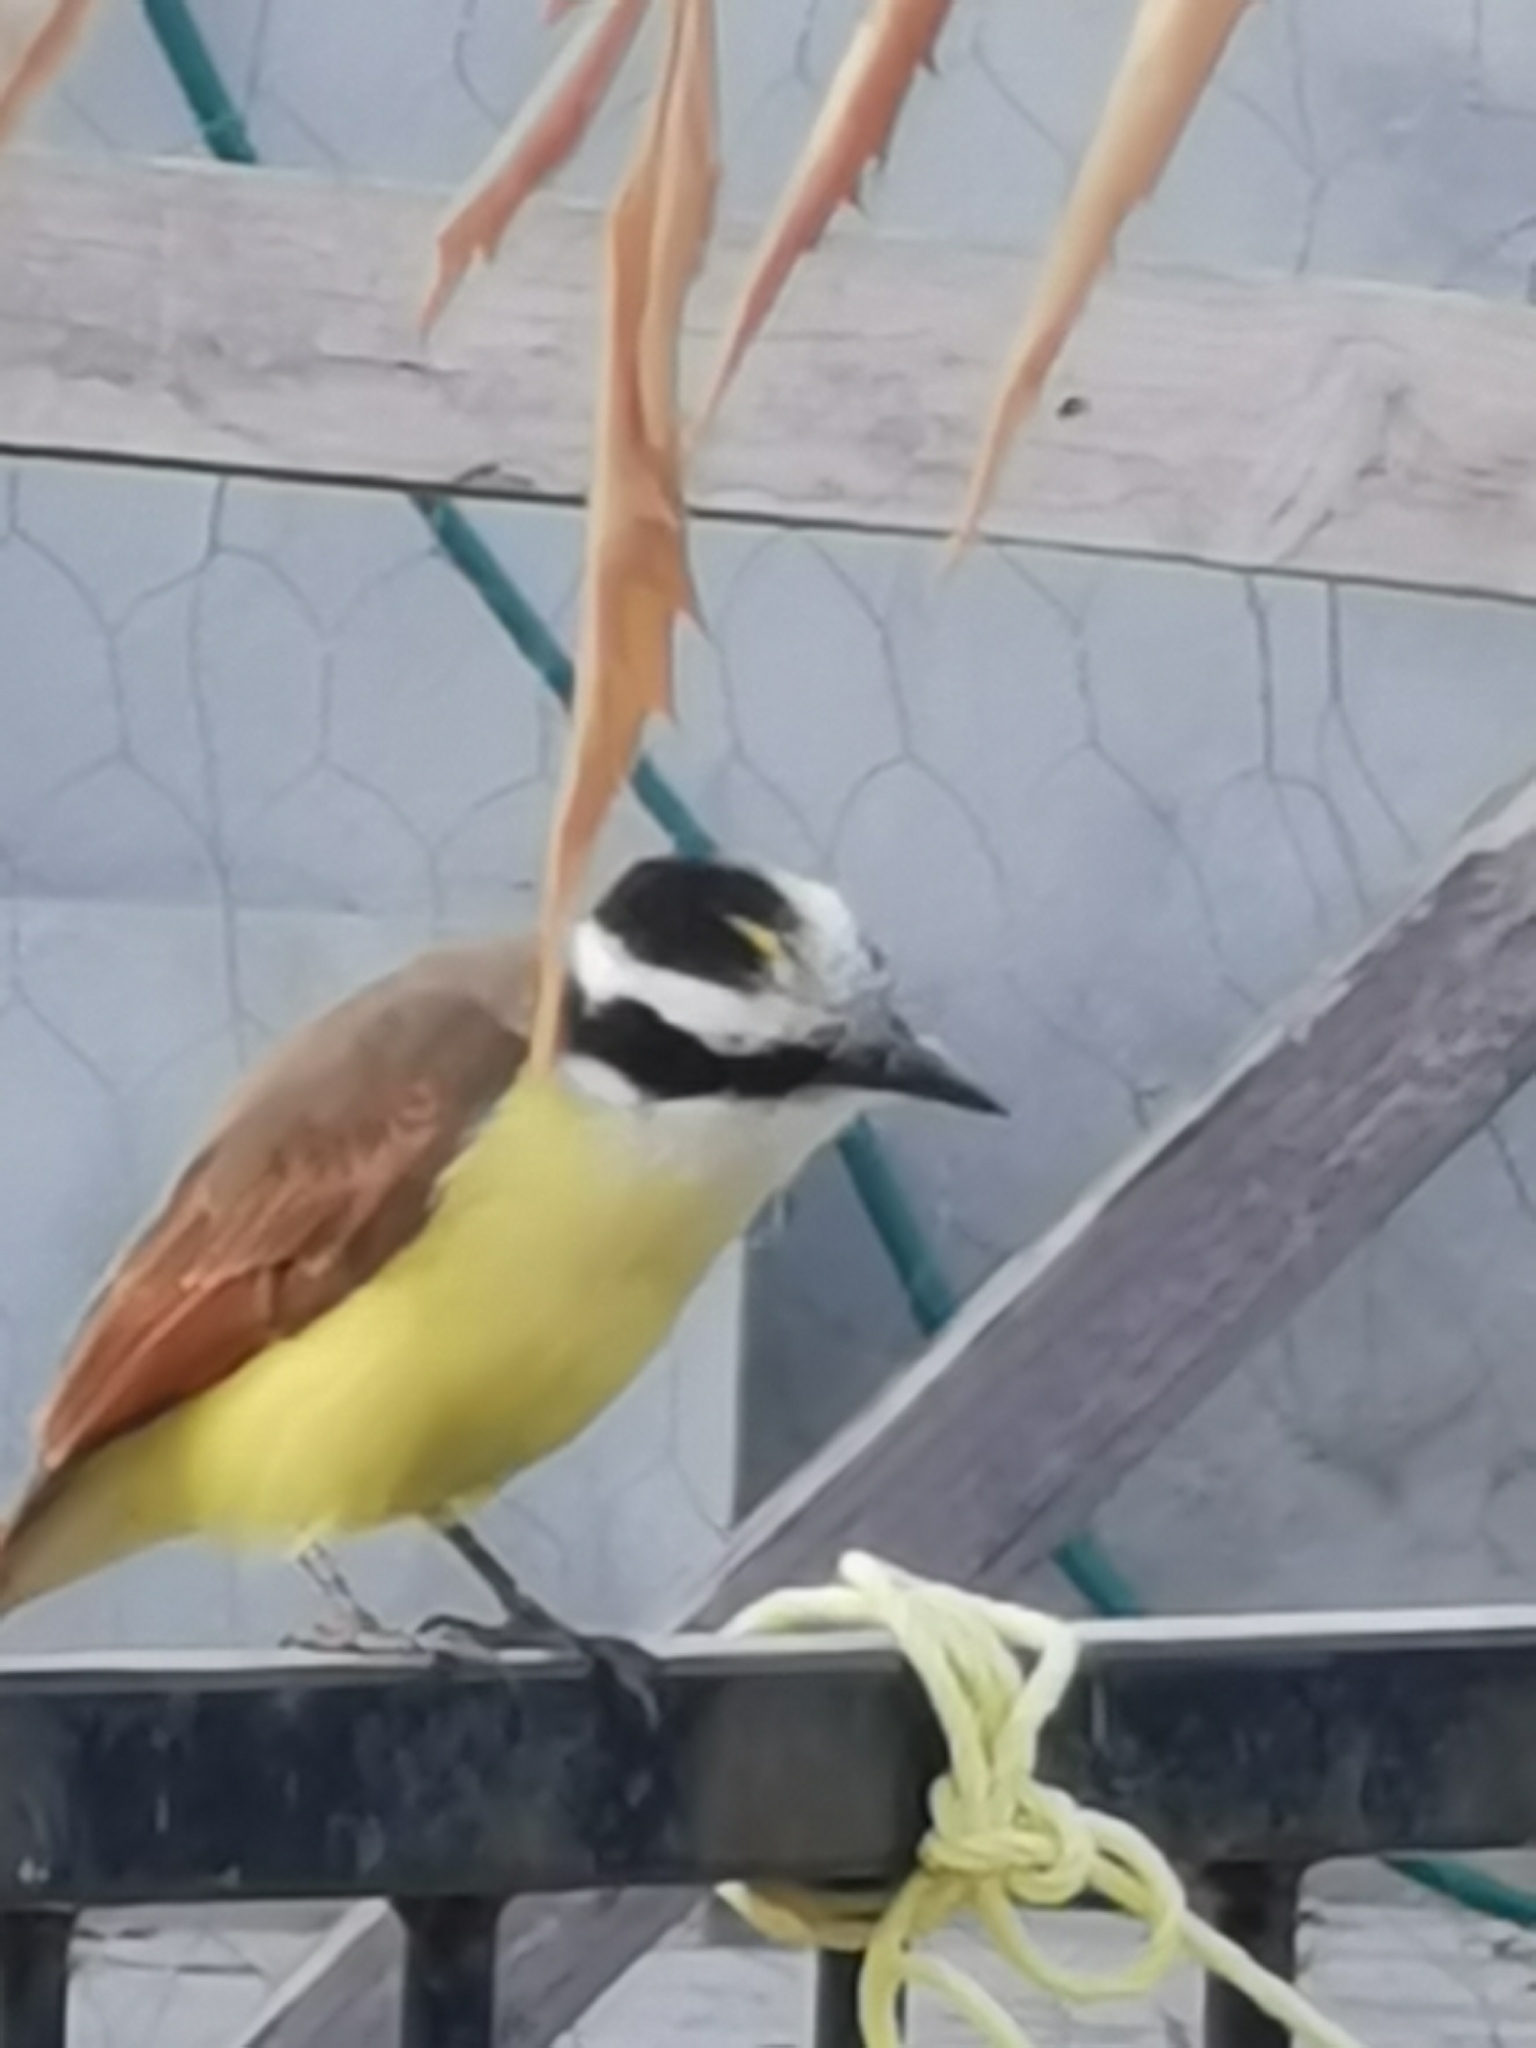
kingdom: Animalia
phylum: Chordata
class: Aves
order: Passeriformes
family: Tyrannidae
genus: Pitangus
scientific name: Pitangus sulphuratus
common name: Great kiskadee
